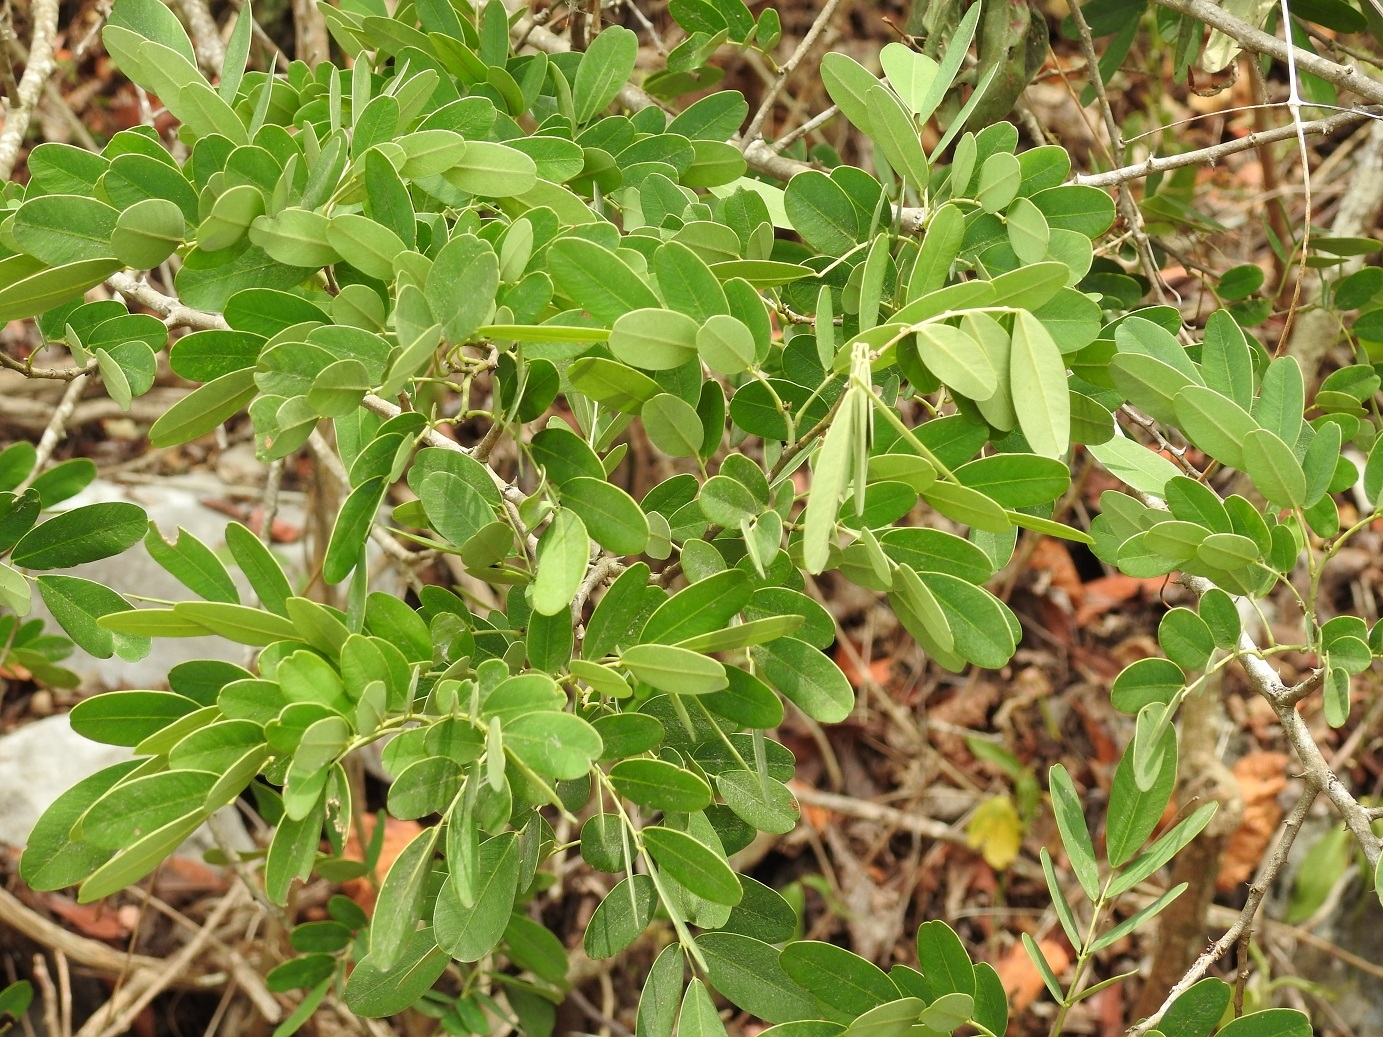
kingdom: Plantae
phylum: Tracheophyta
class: Magnoliopsida
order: Fabales
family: Fabaceae
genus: Machaerium
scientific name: Machaerium riparium
